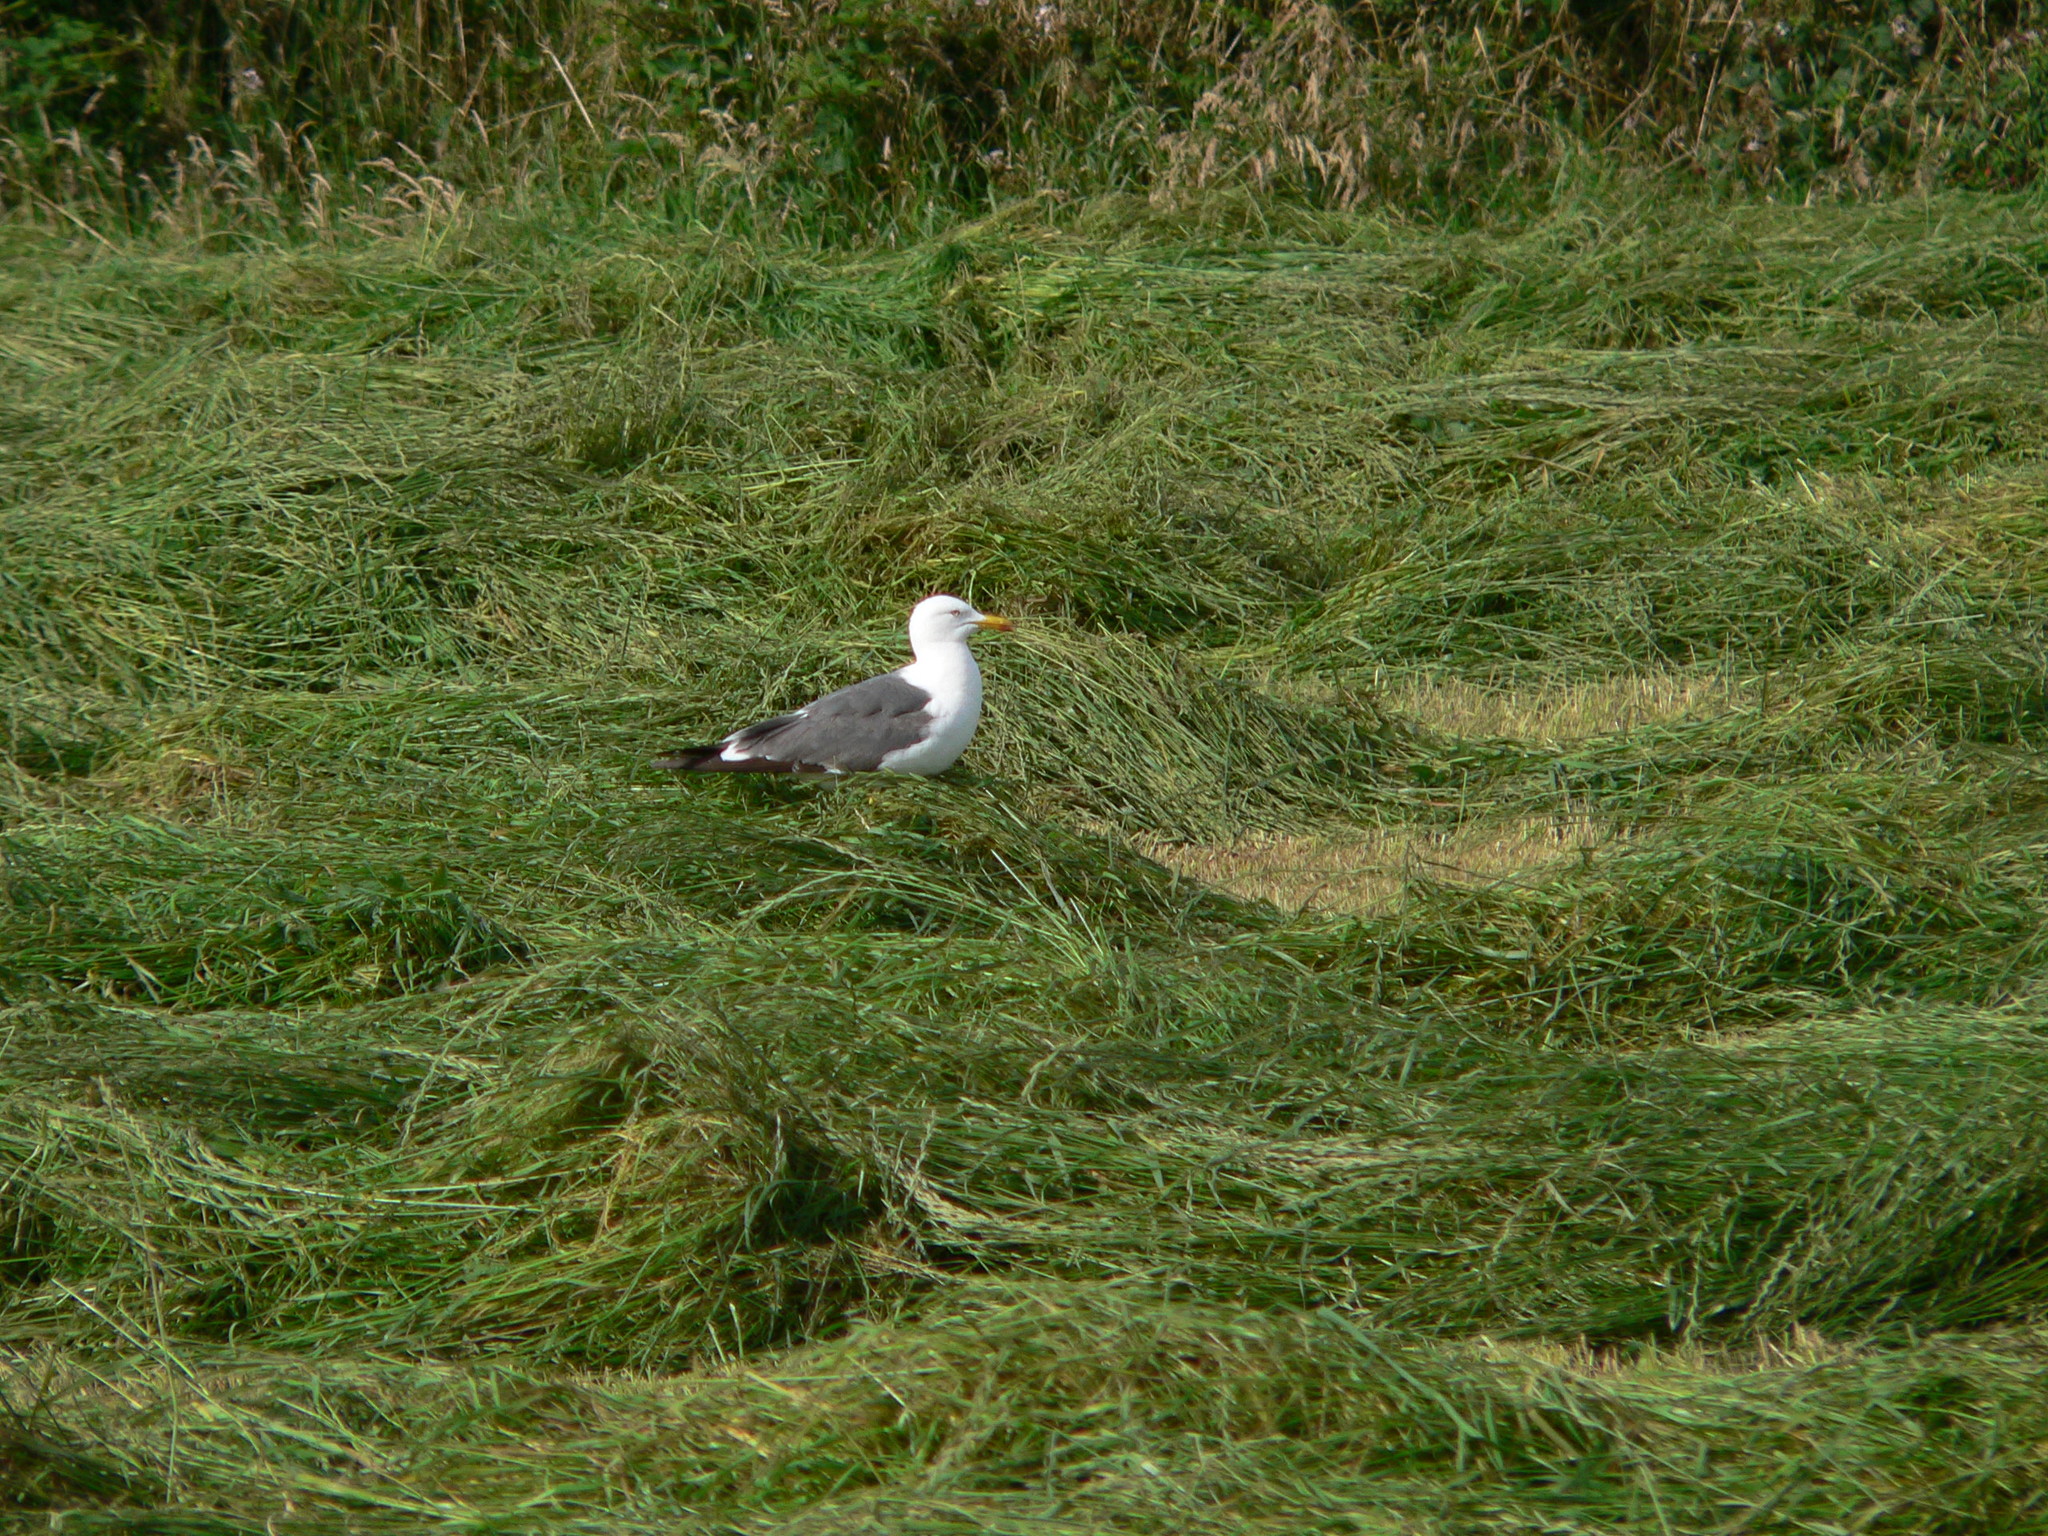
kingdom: Animalia
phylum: Chordata
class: Aves
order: Charadriiformes
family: Laridae
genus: Larus
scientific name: Larus fuscus
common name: Lesser black-backed gull
